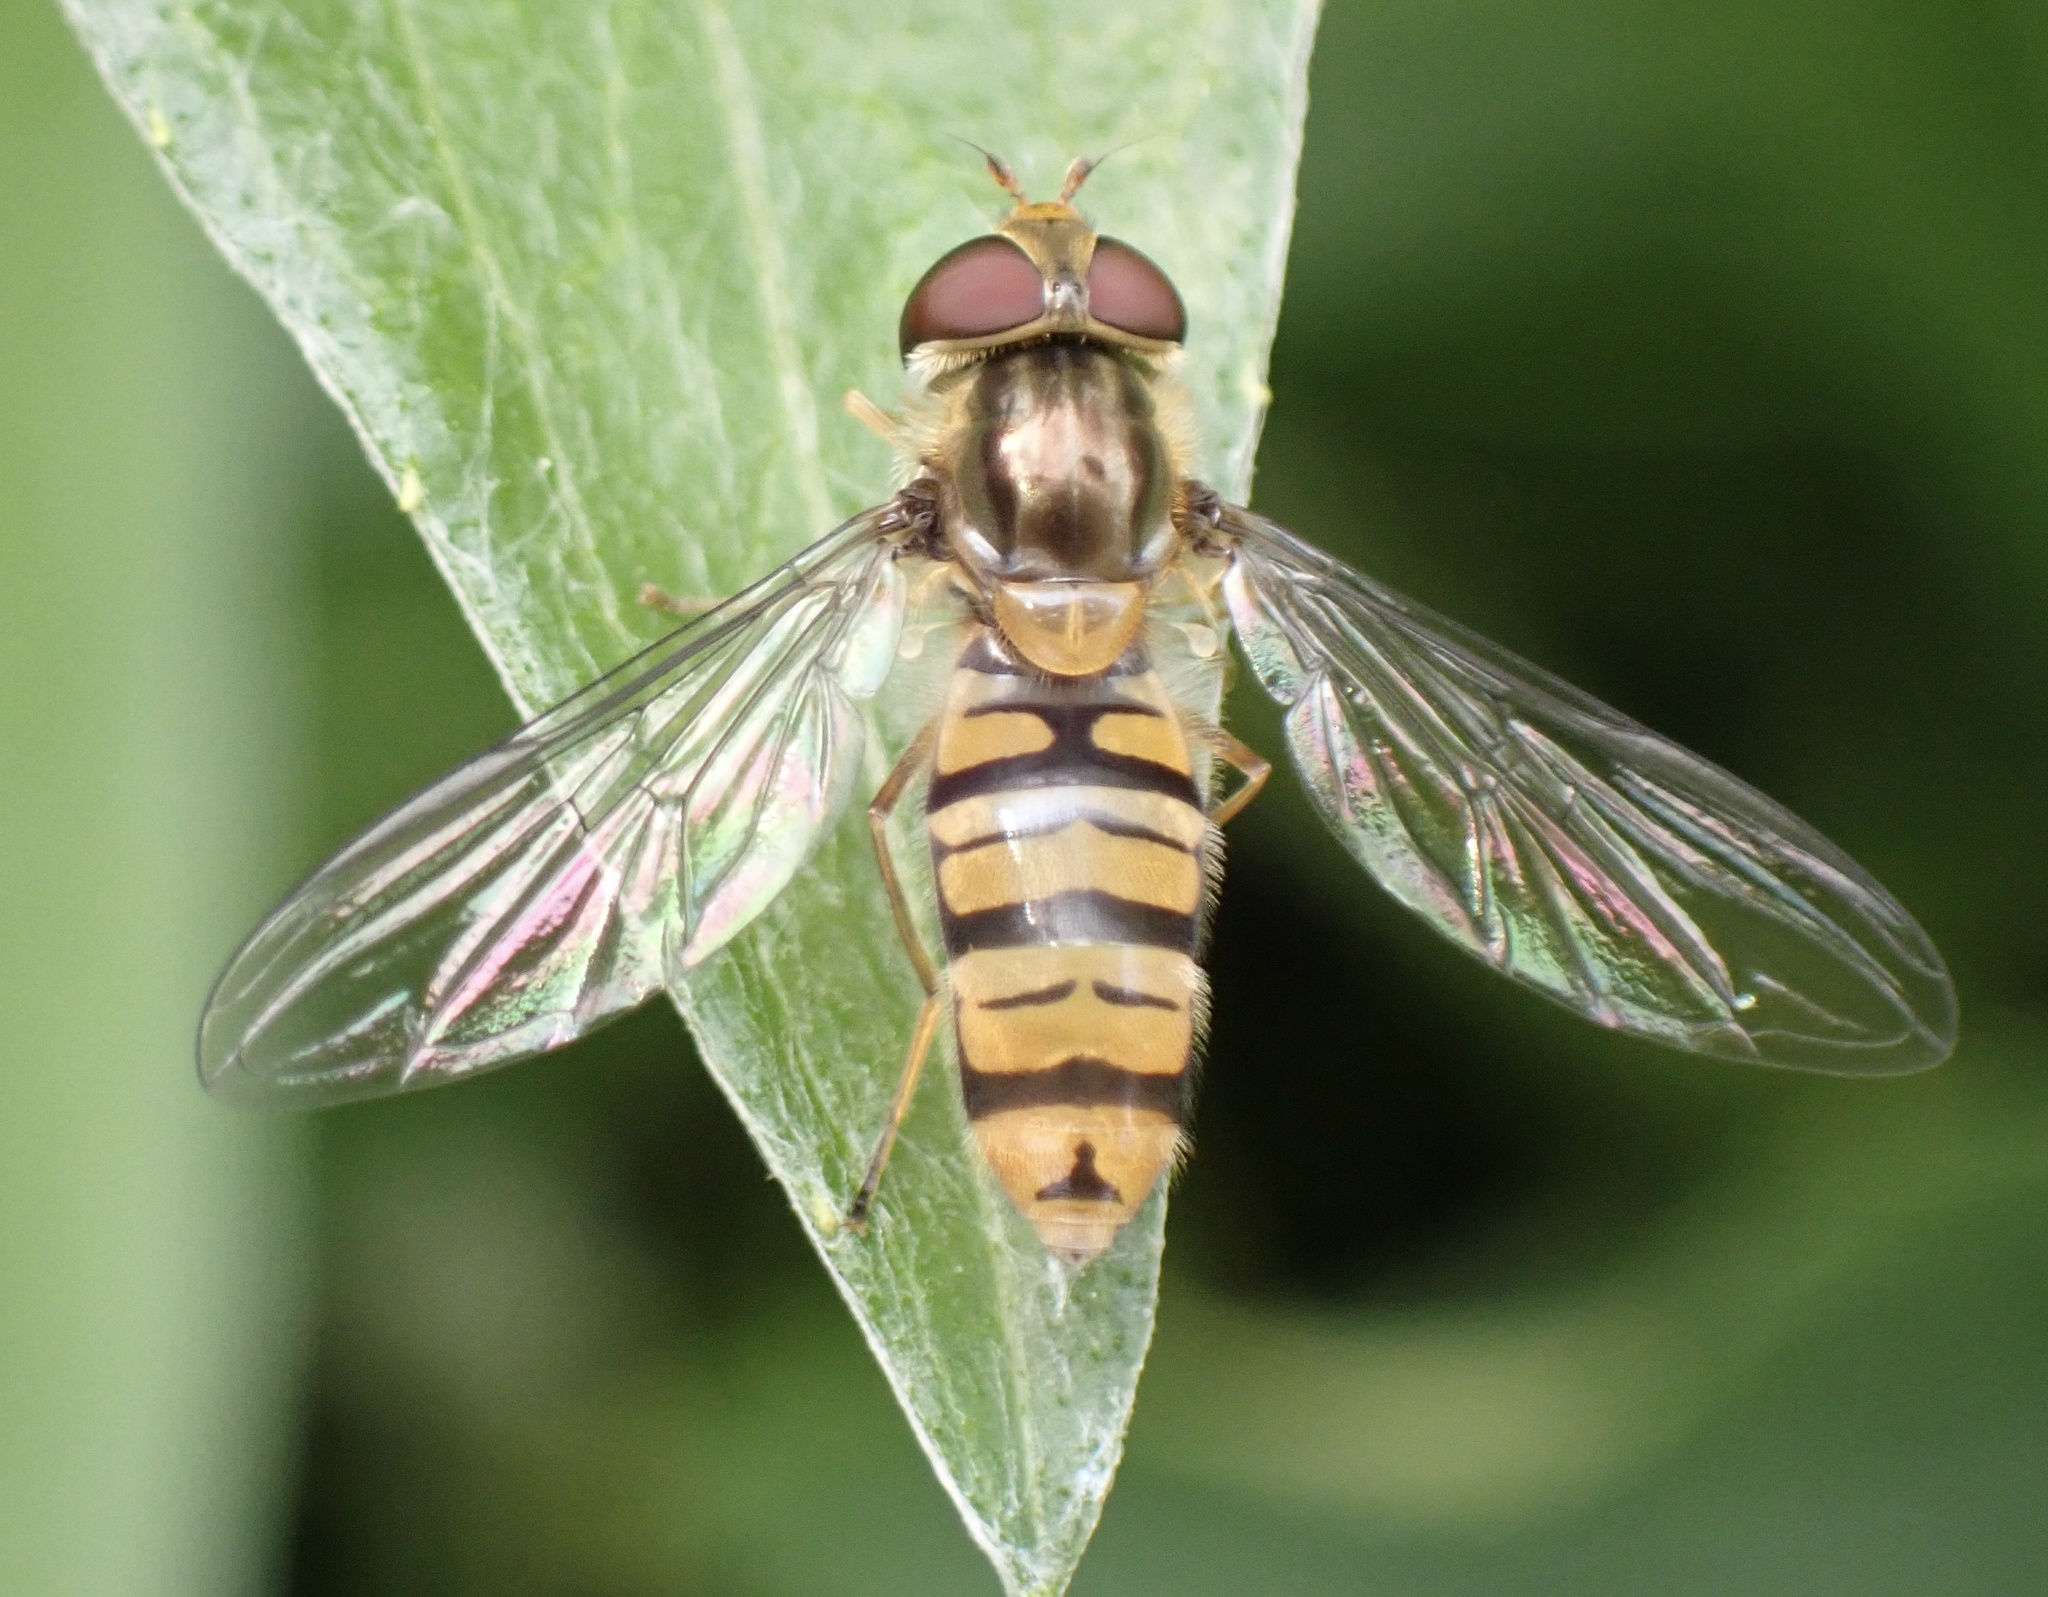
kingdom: Animalia
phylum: Arthropoda
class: Insecta
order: Diptera
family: Syrphidae
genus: Episyrphus
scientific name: Episyrphus balteatus
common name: Marmalade hoverfly
